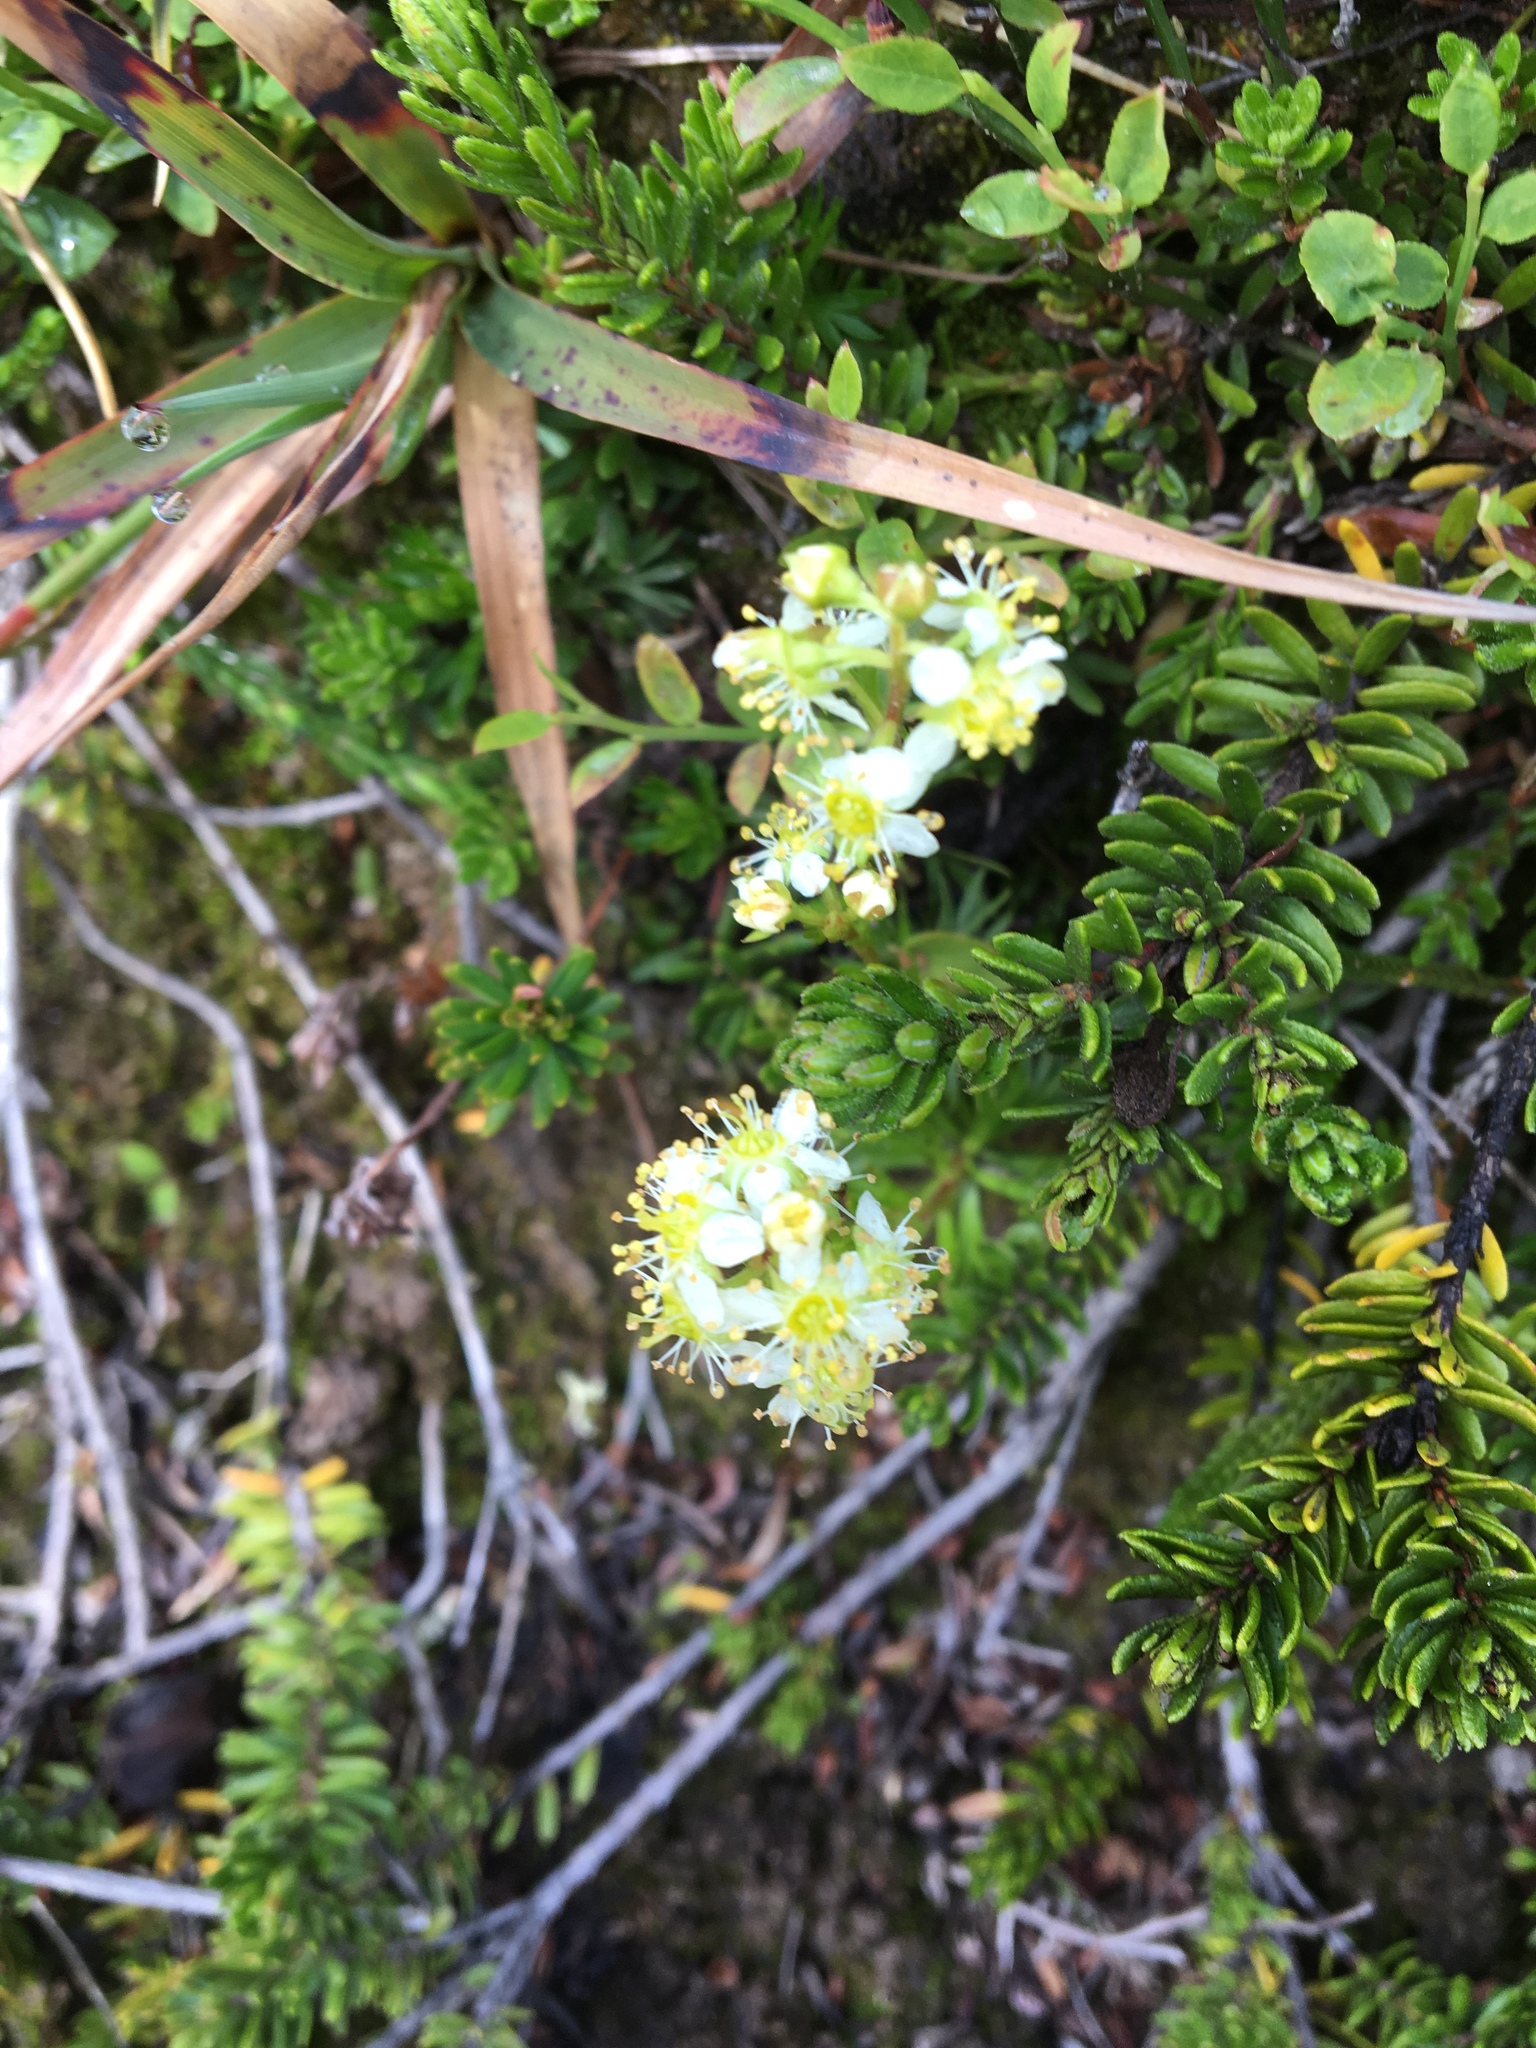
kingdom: Plantae
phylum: Tracheophyta
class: Magnoliopsida
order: Rosales
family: Rosaceae
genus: Luetkea
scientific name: Luetkea pectinata
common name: Partridgefoot
